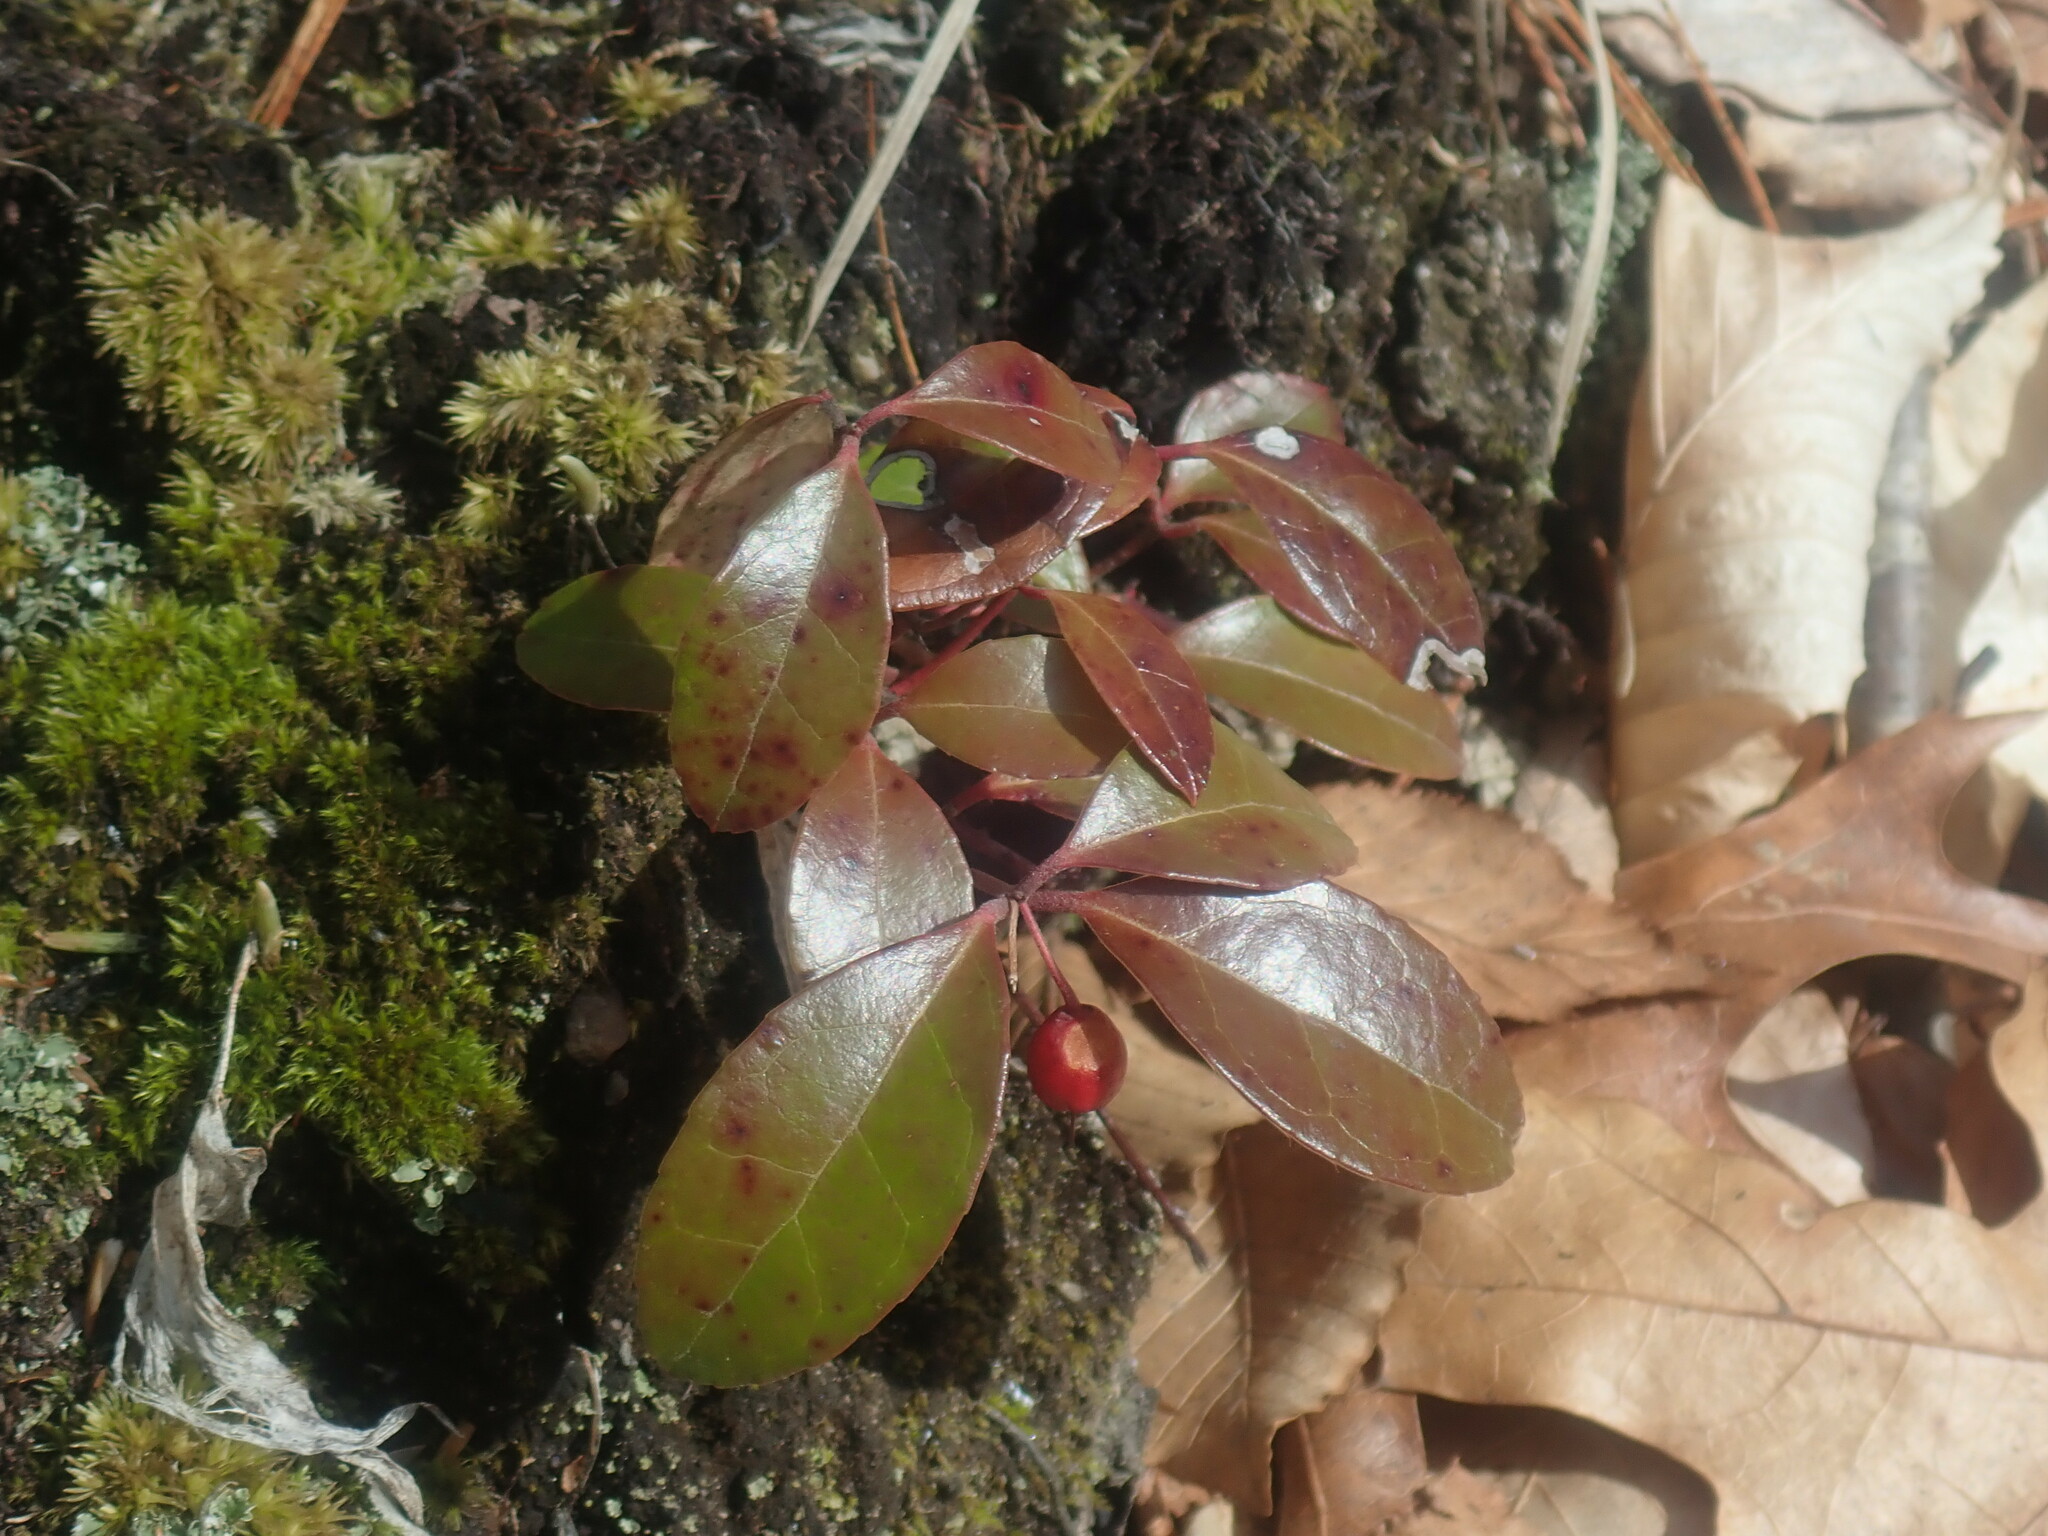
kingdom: Plantae
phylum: Tracheophyta
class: Magnoliopsida
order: Ericales
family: Ericaceae
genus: Gaultheria
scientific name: Gaultheria procumbens
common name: Checkerberry
